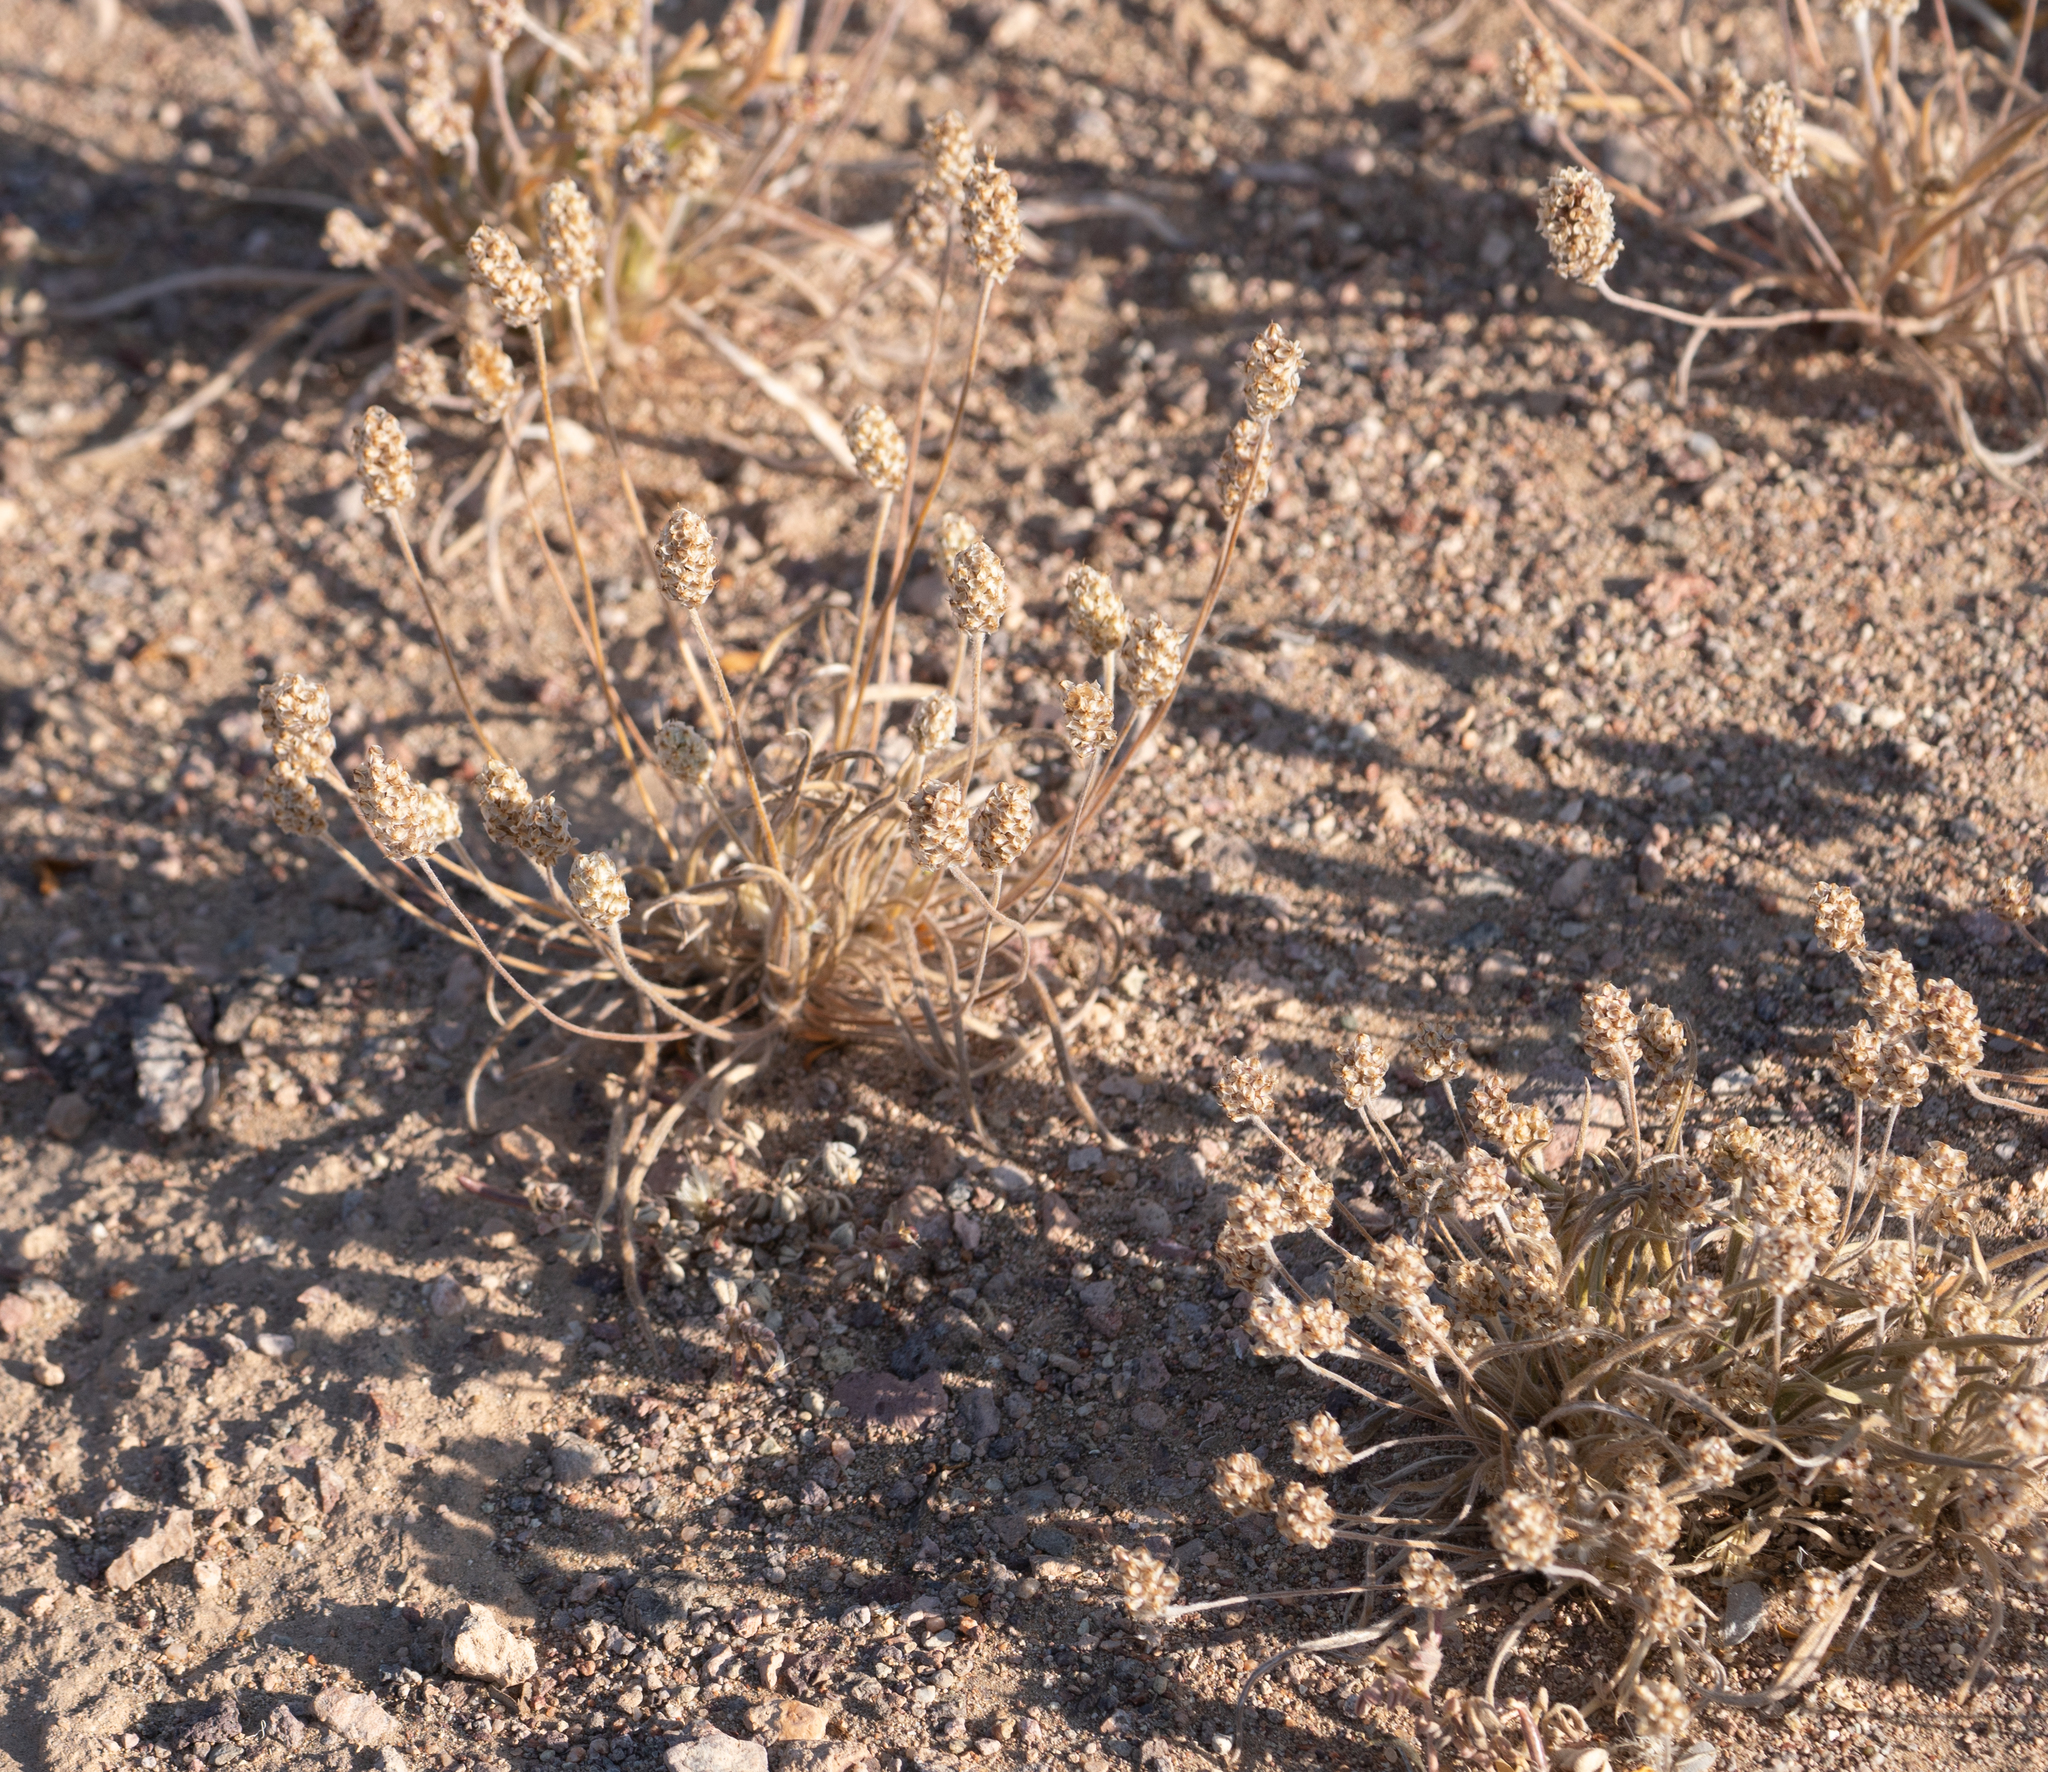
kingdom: Plantae
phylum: Tracheophyta
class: Magnoliopsida
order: Lamiales
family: Plantaginaceae
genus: Plantago
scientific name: Plantago ovata
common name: Blond plantain
